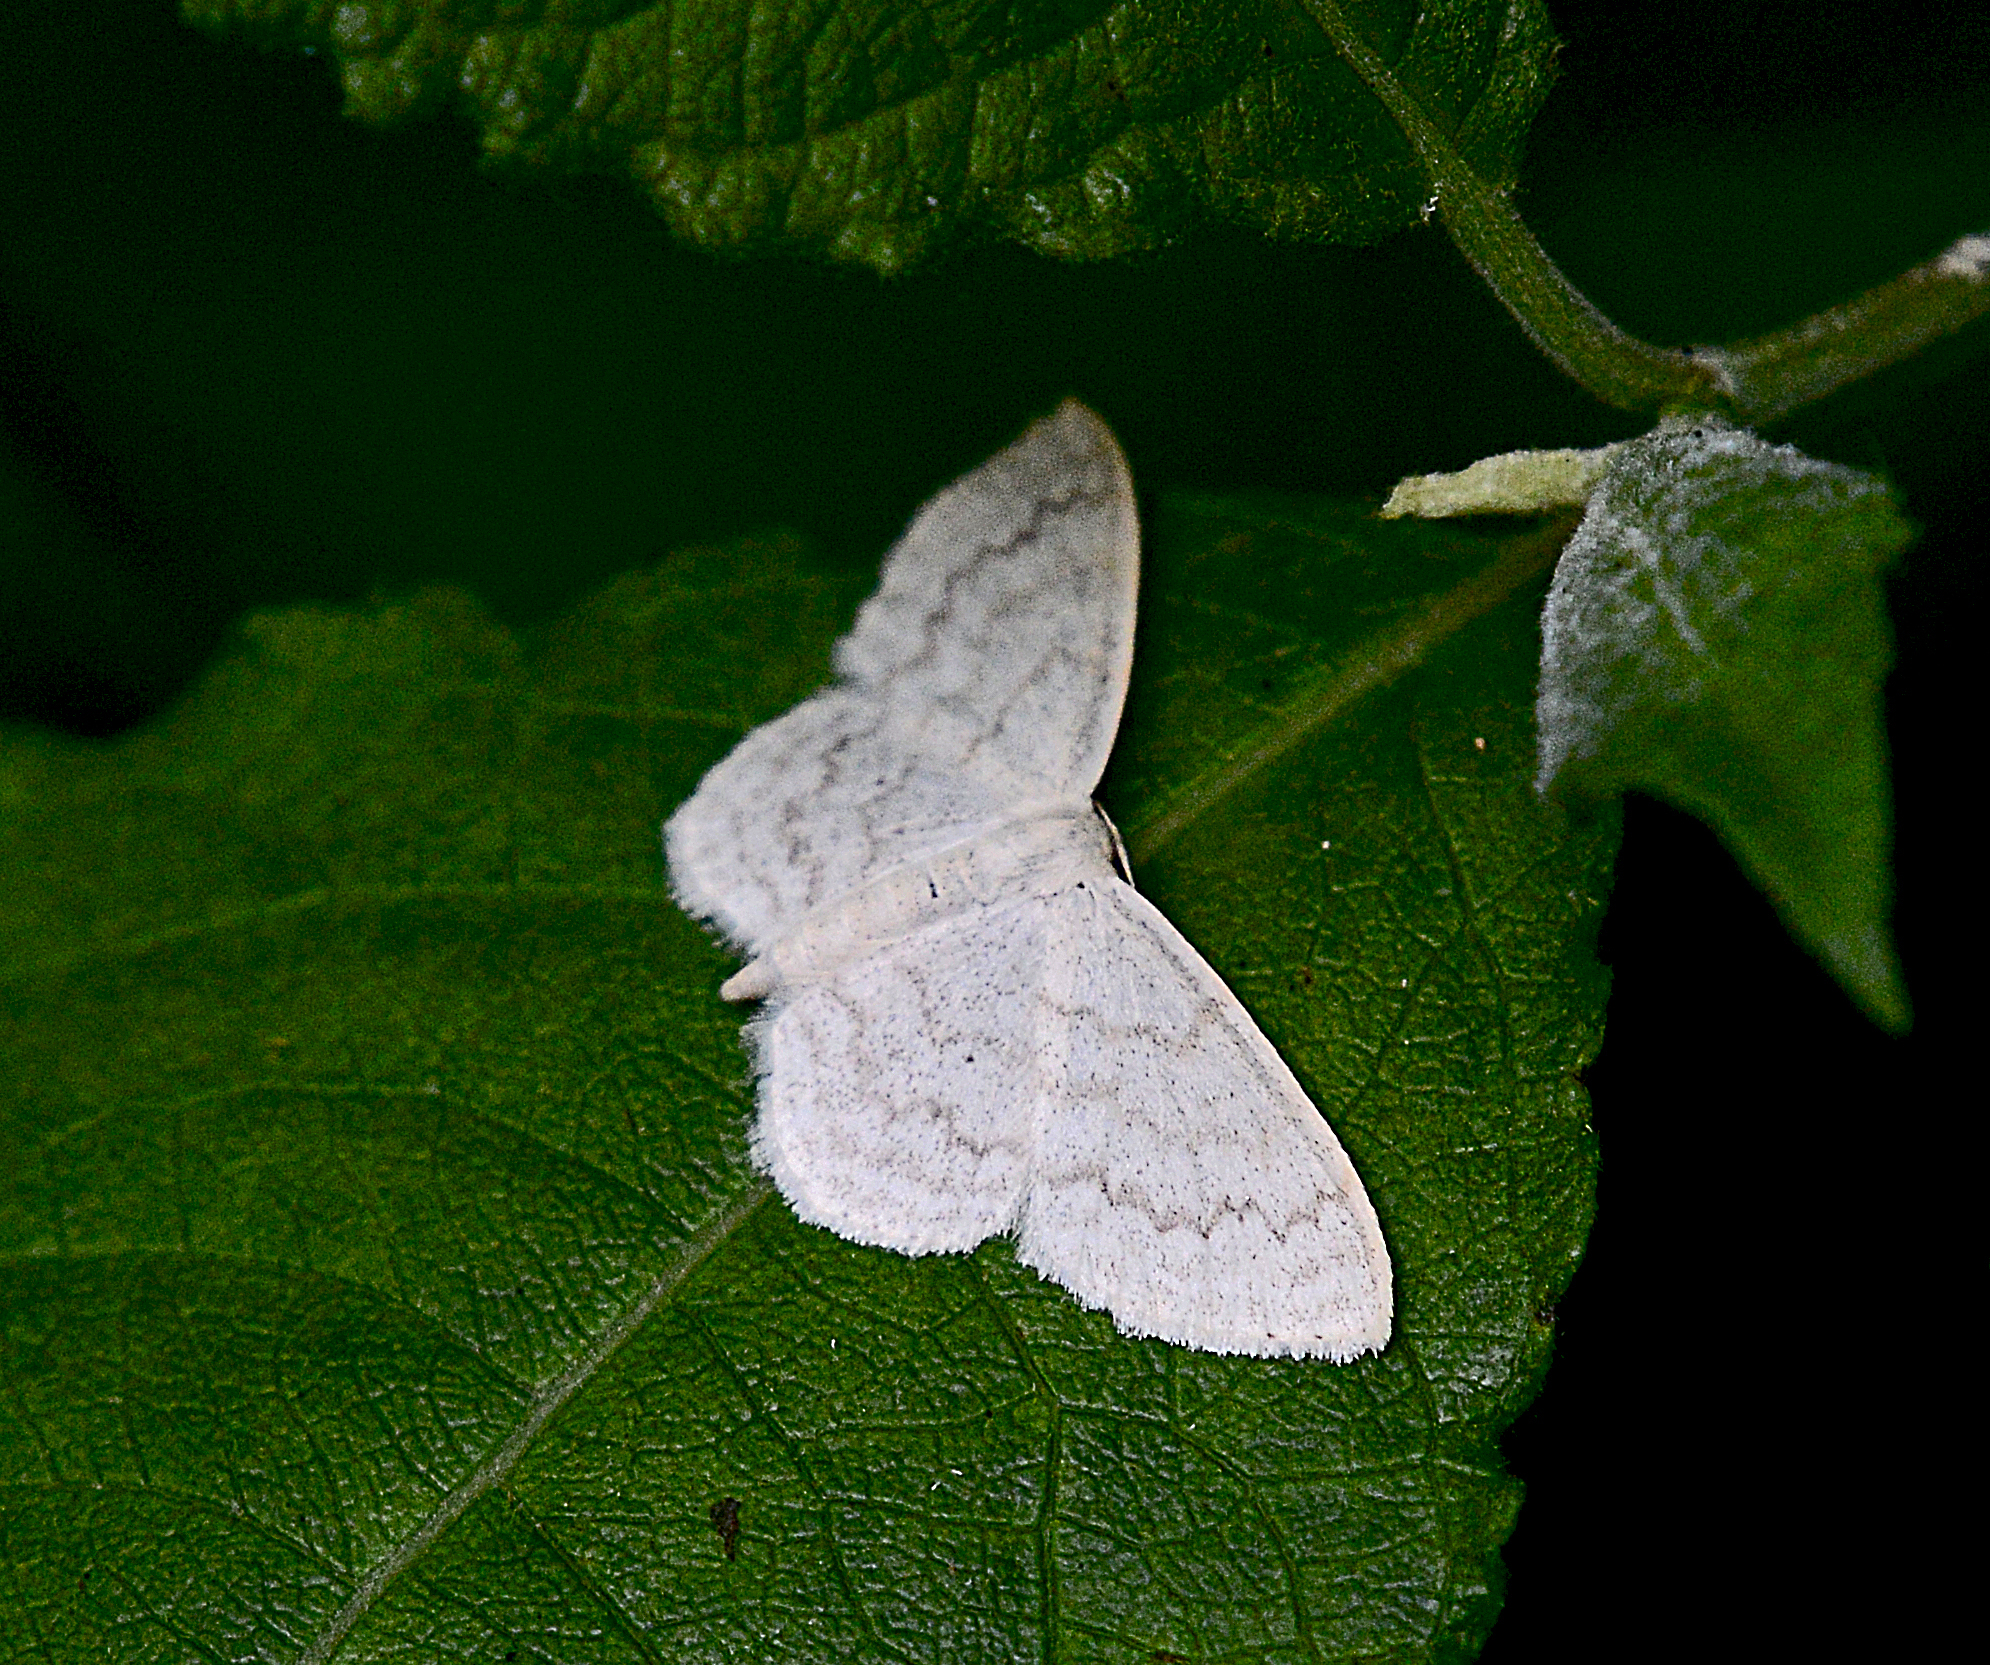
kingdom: Animalia
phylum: Arthropoda
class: Insecta
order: Lepidoptera
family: Geometridae
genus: Scopula
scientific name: Scopula floslactata
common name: Cream wave
